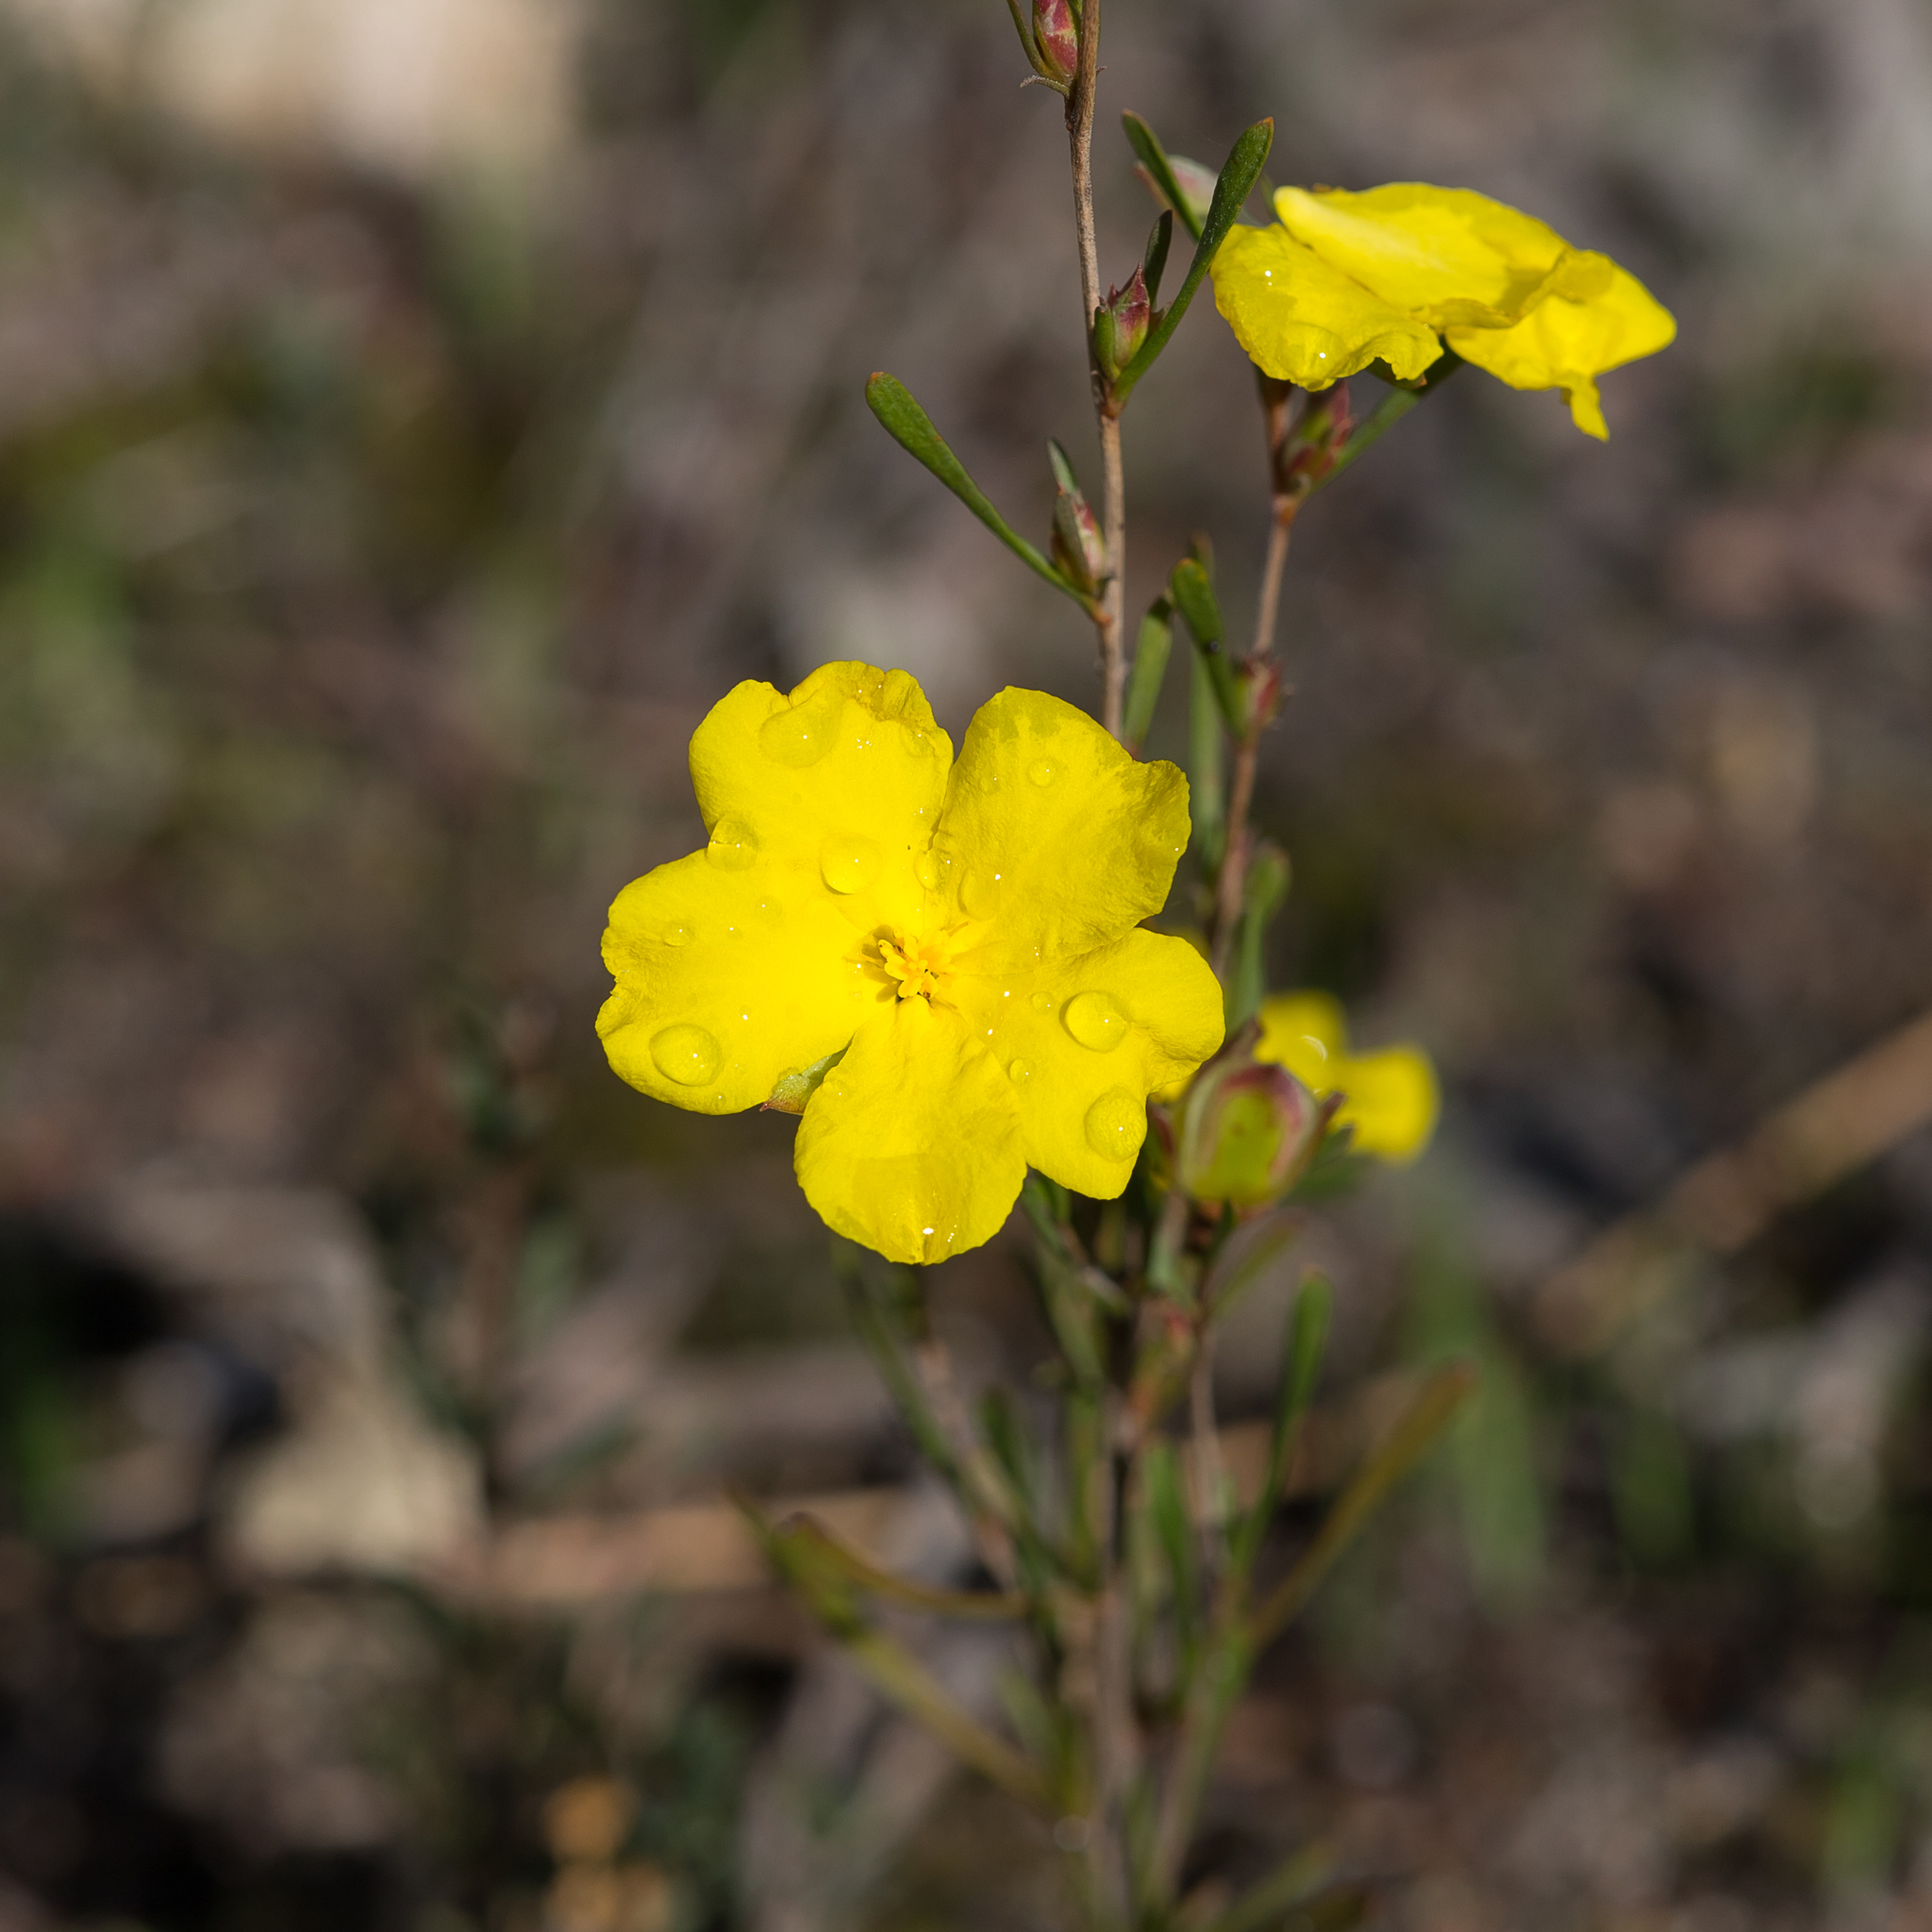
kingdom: Plantae
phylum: Tracheophyta
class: Magnoliopsida
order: Dilleniales
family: Dilleniaceae
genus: Hibbertia
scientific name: Hibbertia virgata
